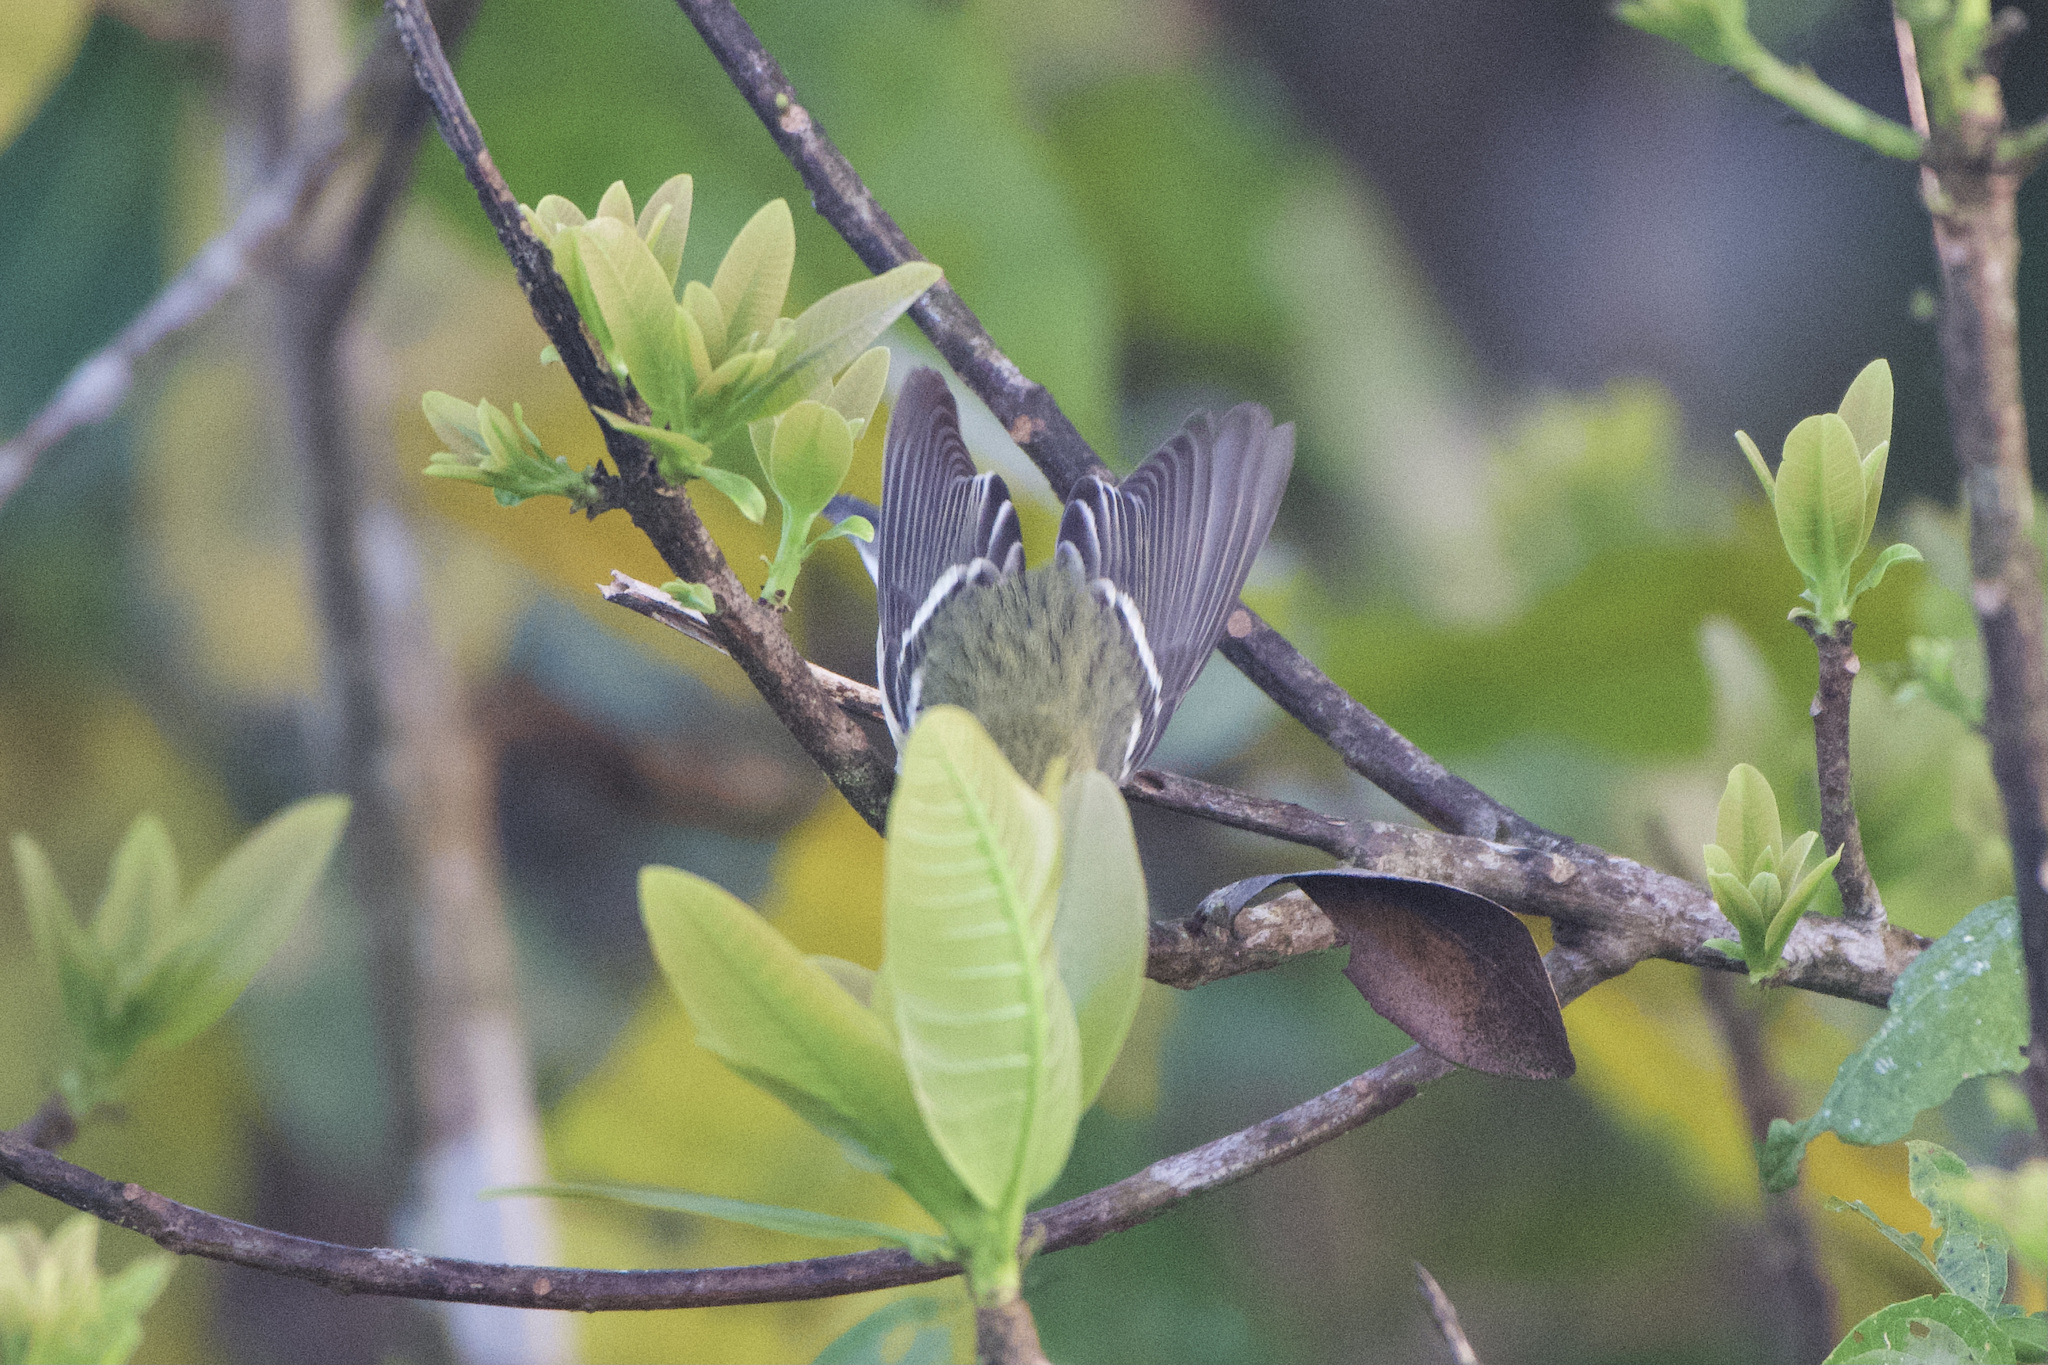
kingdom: Animalia
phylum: Chordata
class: Aves
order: Passeriformes
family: Parulidae
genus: Setophaga
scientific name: Setophaga castanea
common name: Bay-breasted warbler
